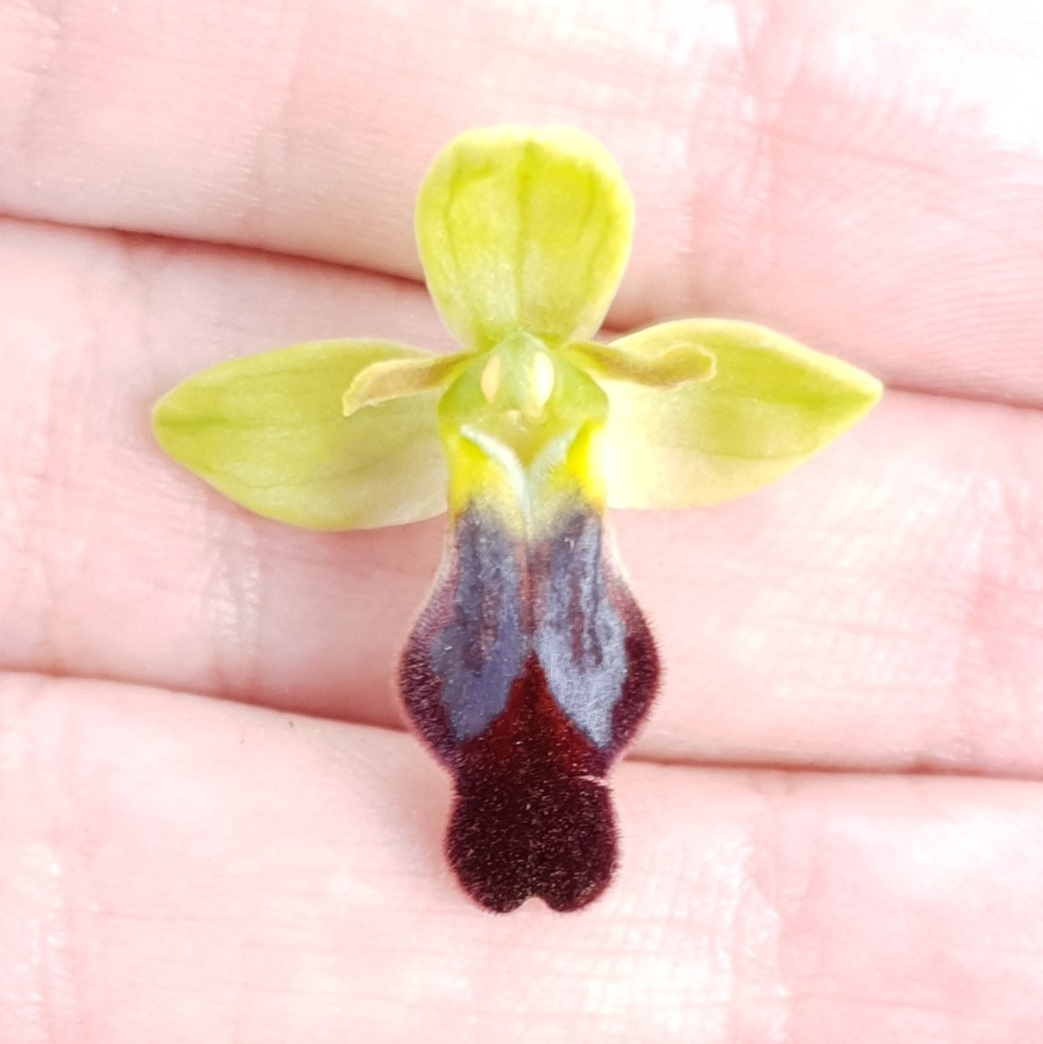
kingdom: Plantae
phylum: Tracheophyta
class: Liliopsida
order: Asparagales
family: Orchidaceae
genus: Ophrys
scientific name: Ophrys fusca
